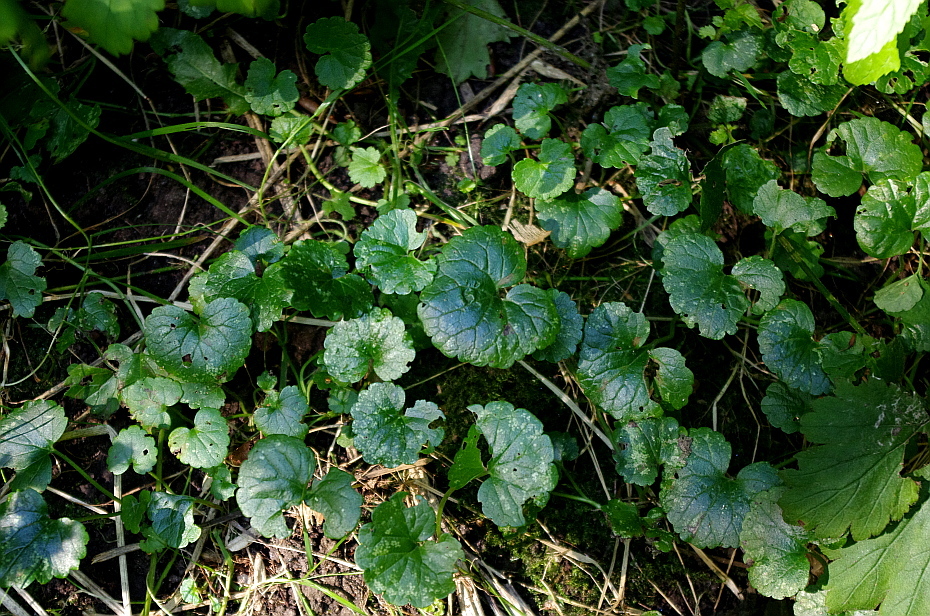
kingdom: Plantae
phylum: Tracheophyta
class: Magnoliopsida
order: Lamiales
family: Lamiaceae
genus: Glechoma
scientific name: Glechoma hederacea
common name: Ground ivy
